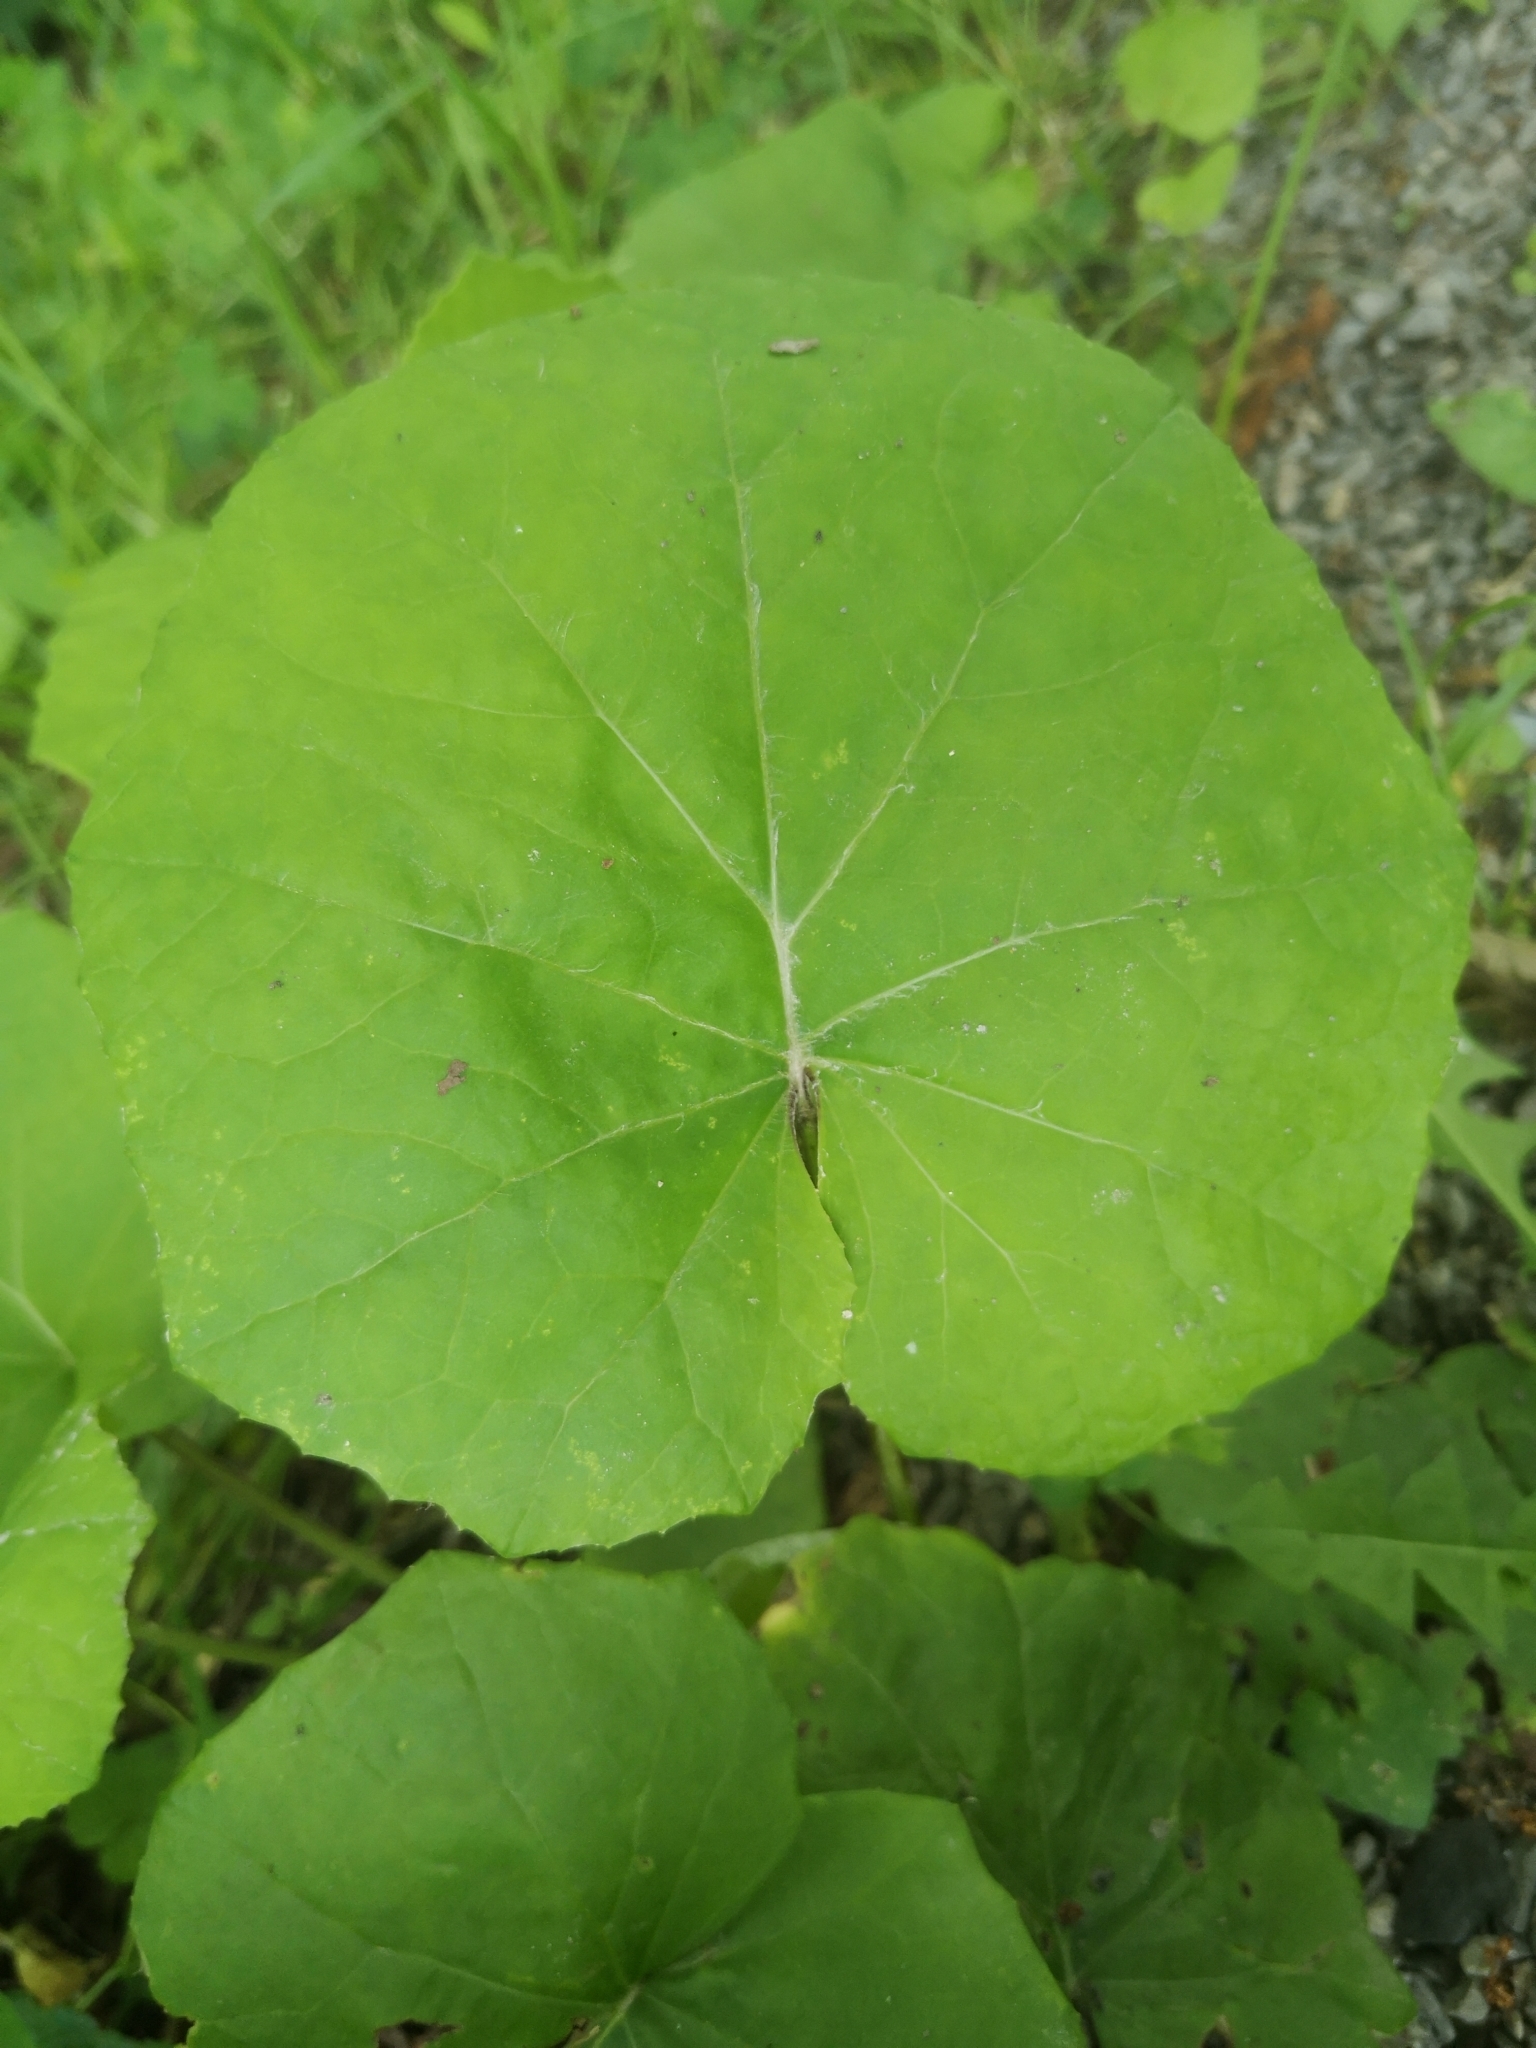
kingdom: Plantae
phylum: Tracheophyta
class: Magnoliopsida
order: Asterales
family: Asteraceae
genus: Tussilago
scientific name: Tussilago farfara
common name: Coltsfoot
